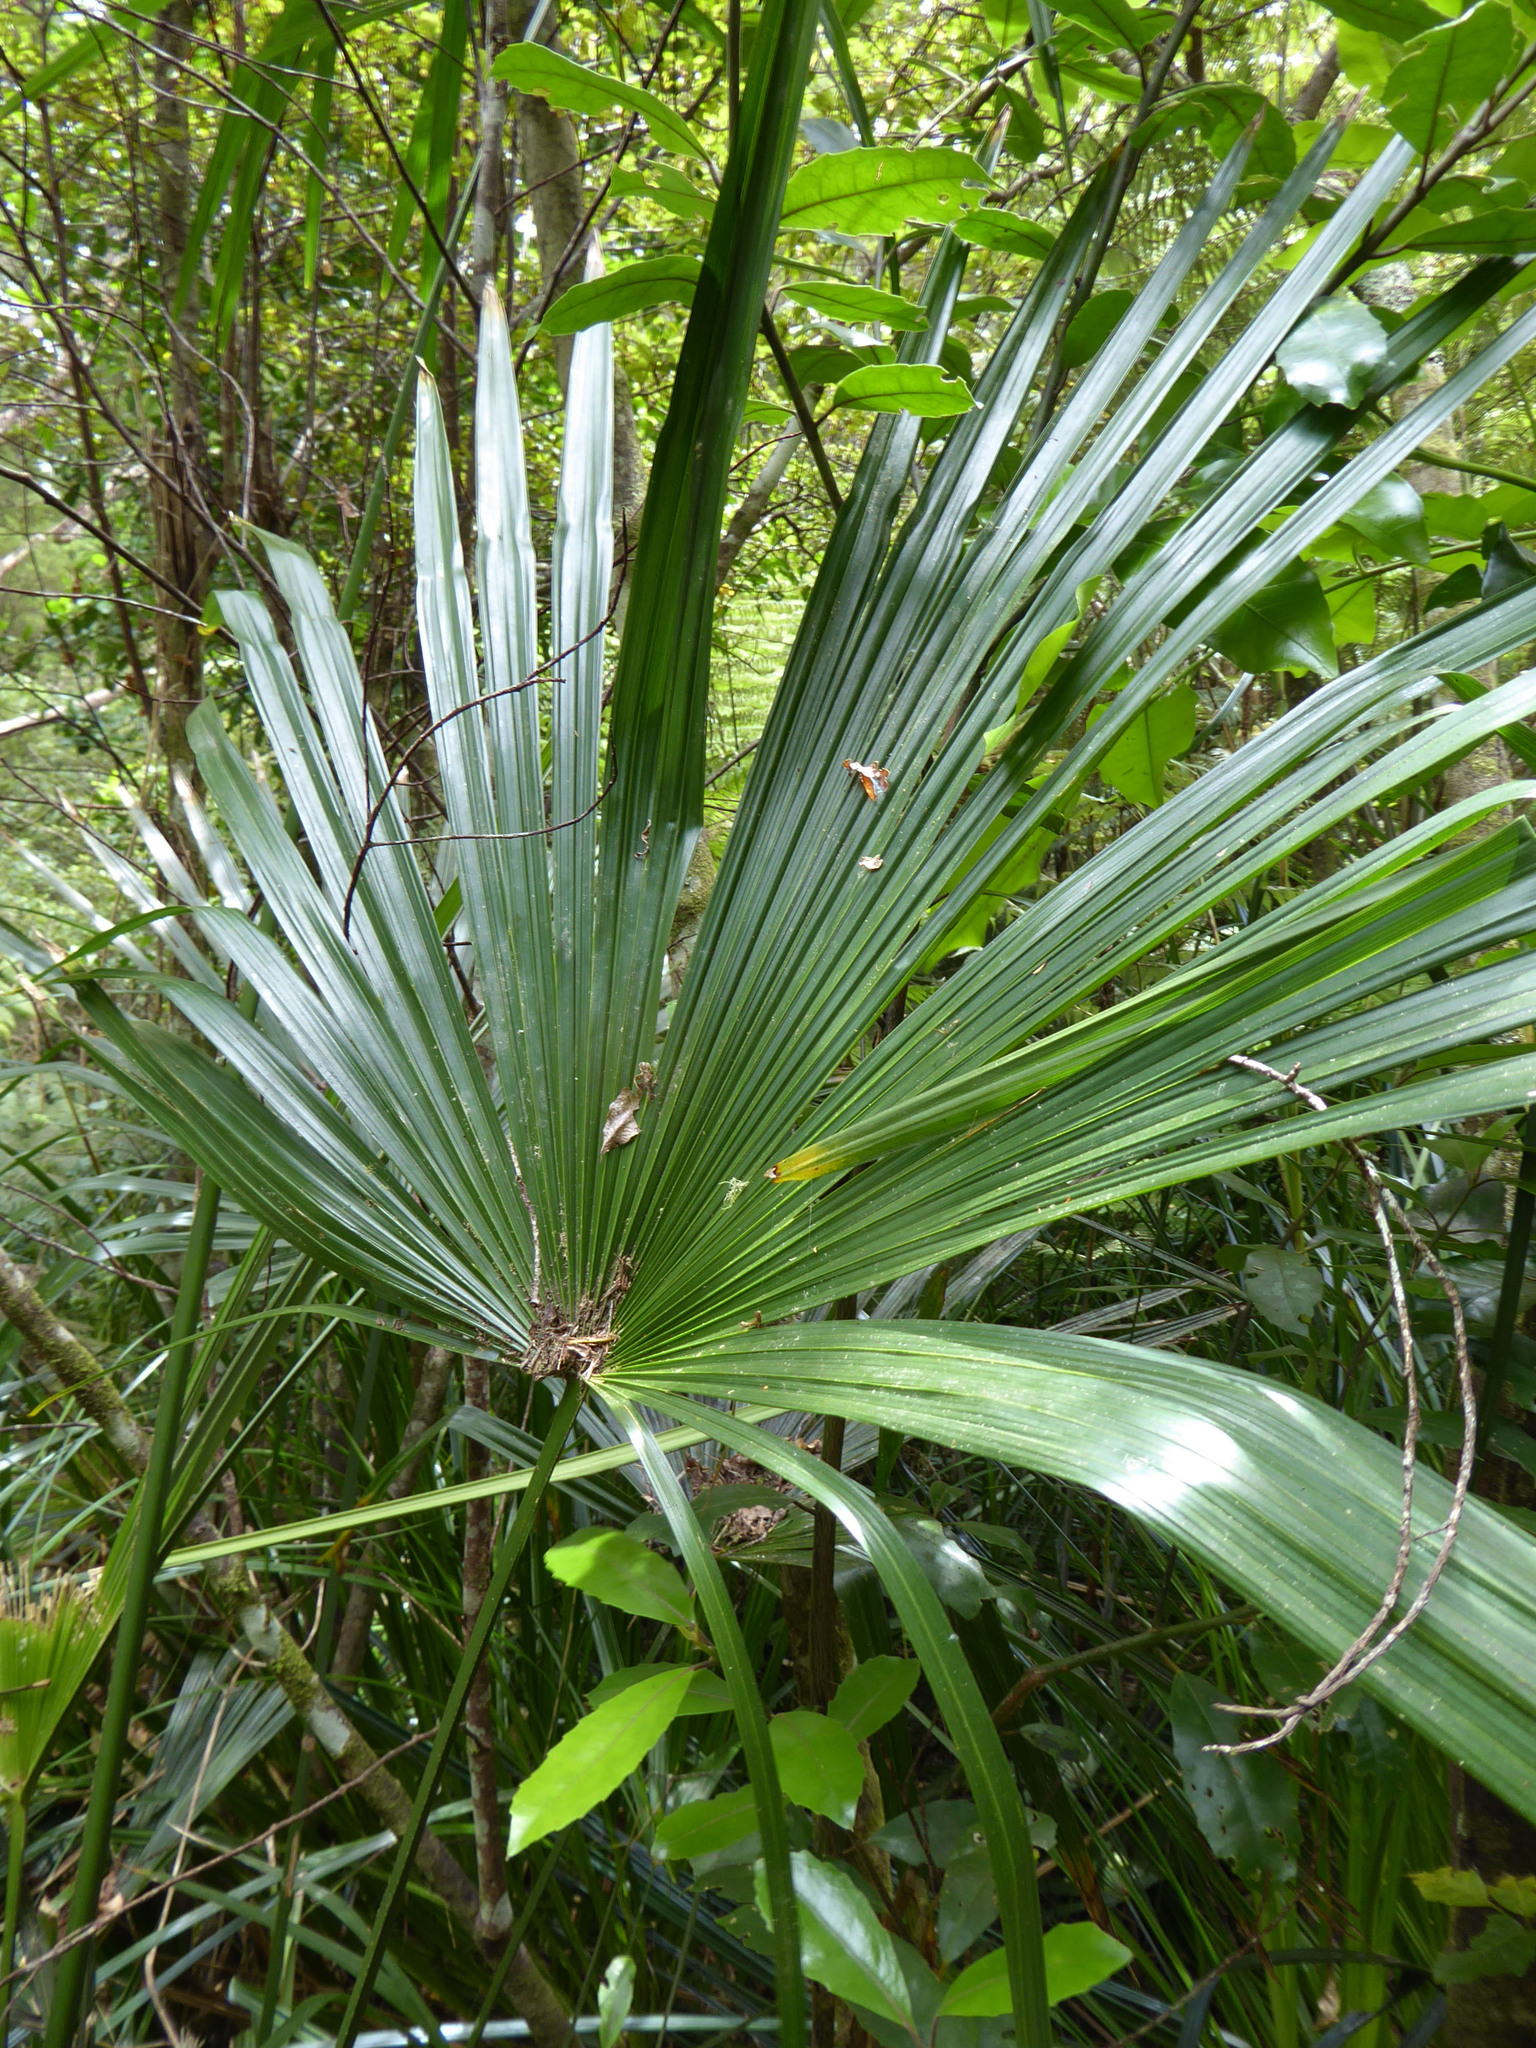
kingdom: Plantae
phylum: Tracheophyta
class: Liliopsida
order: Arecales
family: Arecaceae
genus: Trachycarpus
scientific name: Trachycarpus fortunei
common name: Chusan palm
